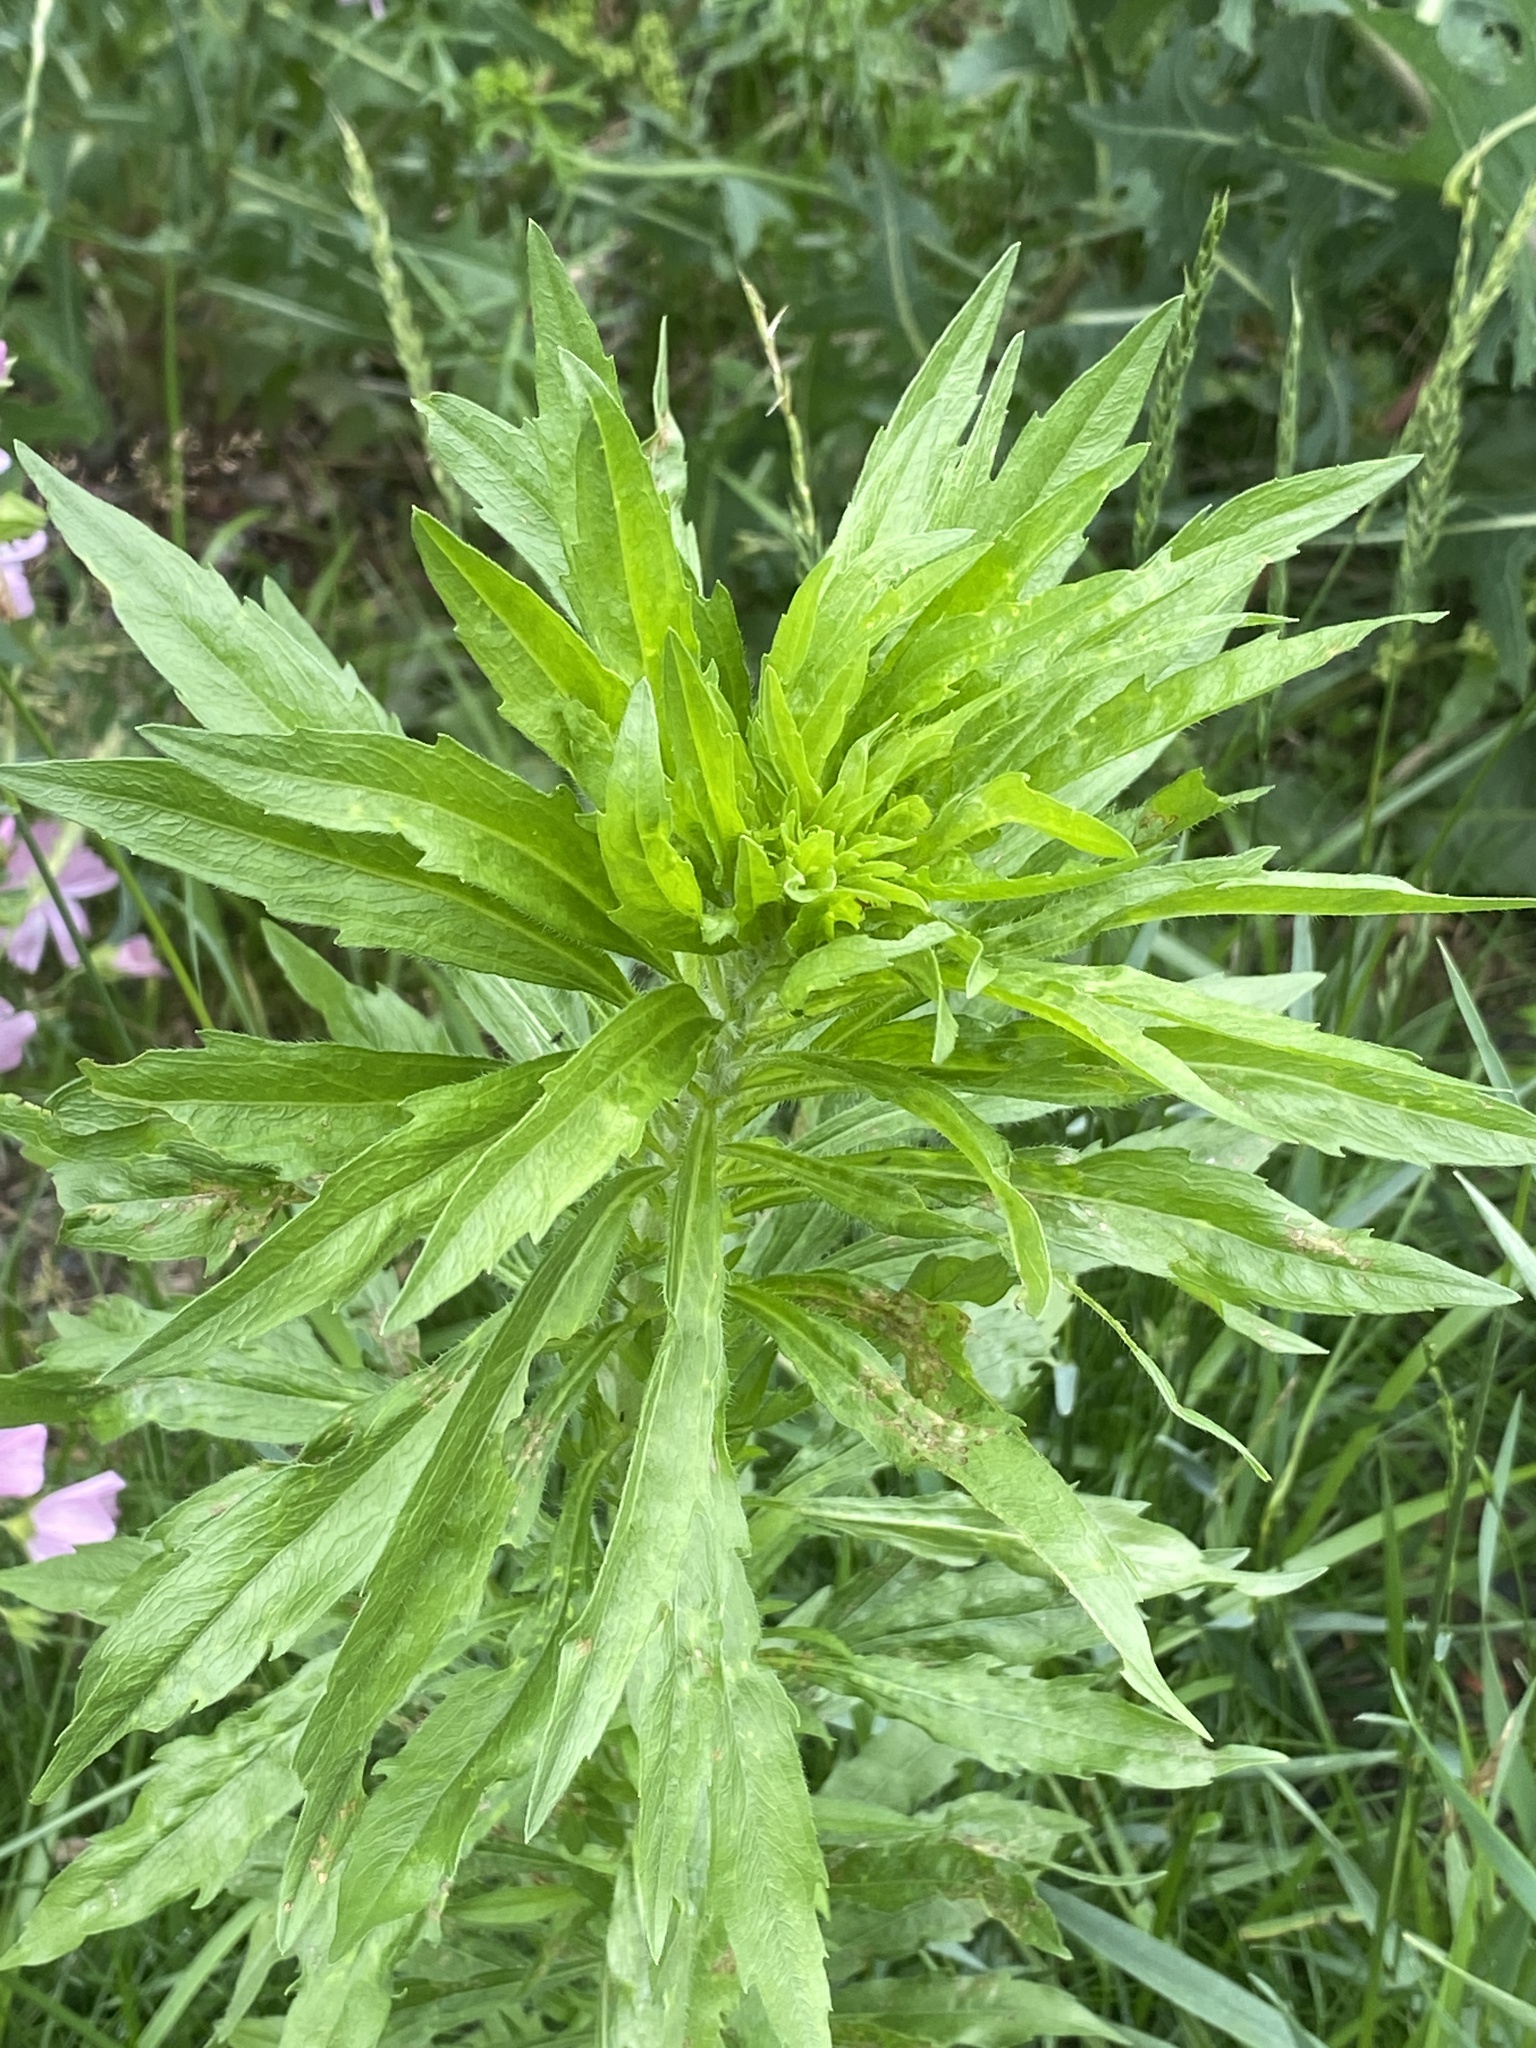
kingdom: Plantae
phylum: Tracheophyta
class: Magnoliopsida
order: Asterales
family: Asteraceae
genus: Erigeron
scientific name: Erigeron canadensis
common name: Canadian fleabane
